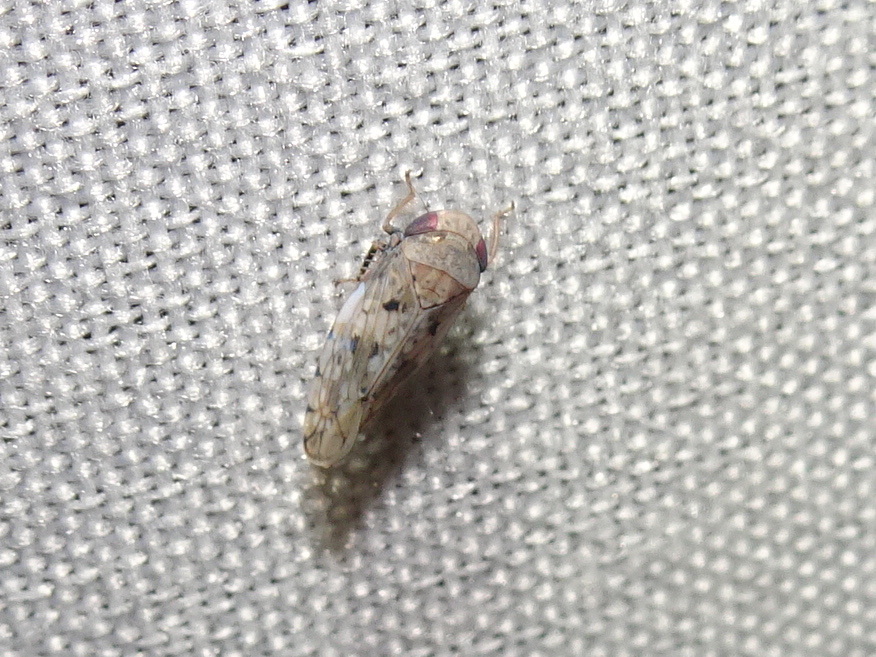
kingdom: Animalia
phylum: Arthropoda
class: Insecta
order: Hemiptera
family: Cicadellidae
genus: Menosoma
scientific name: Menosoma cinctum
